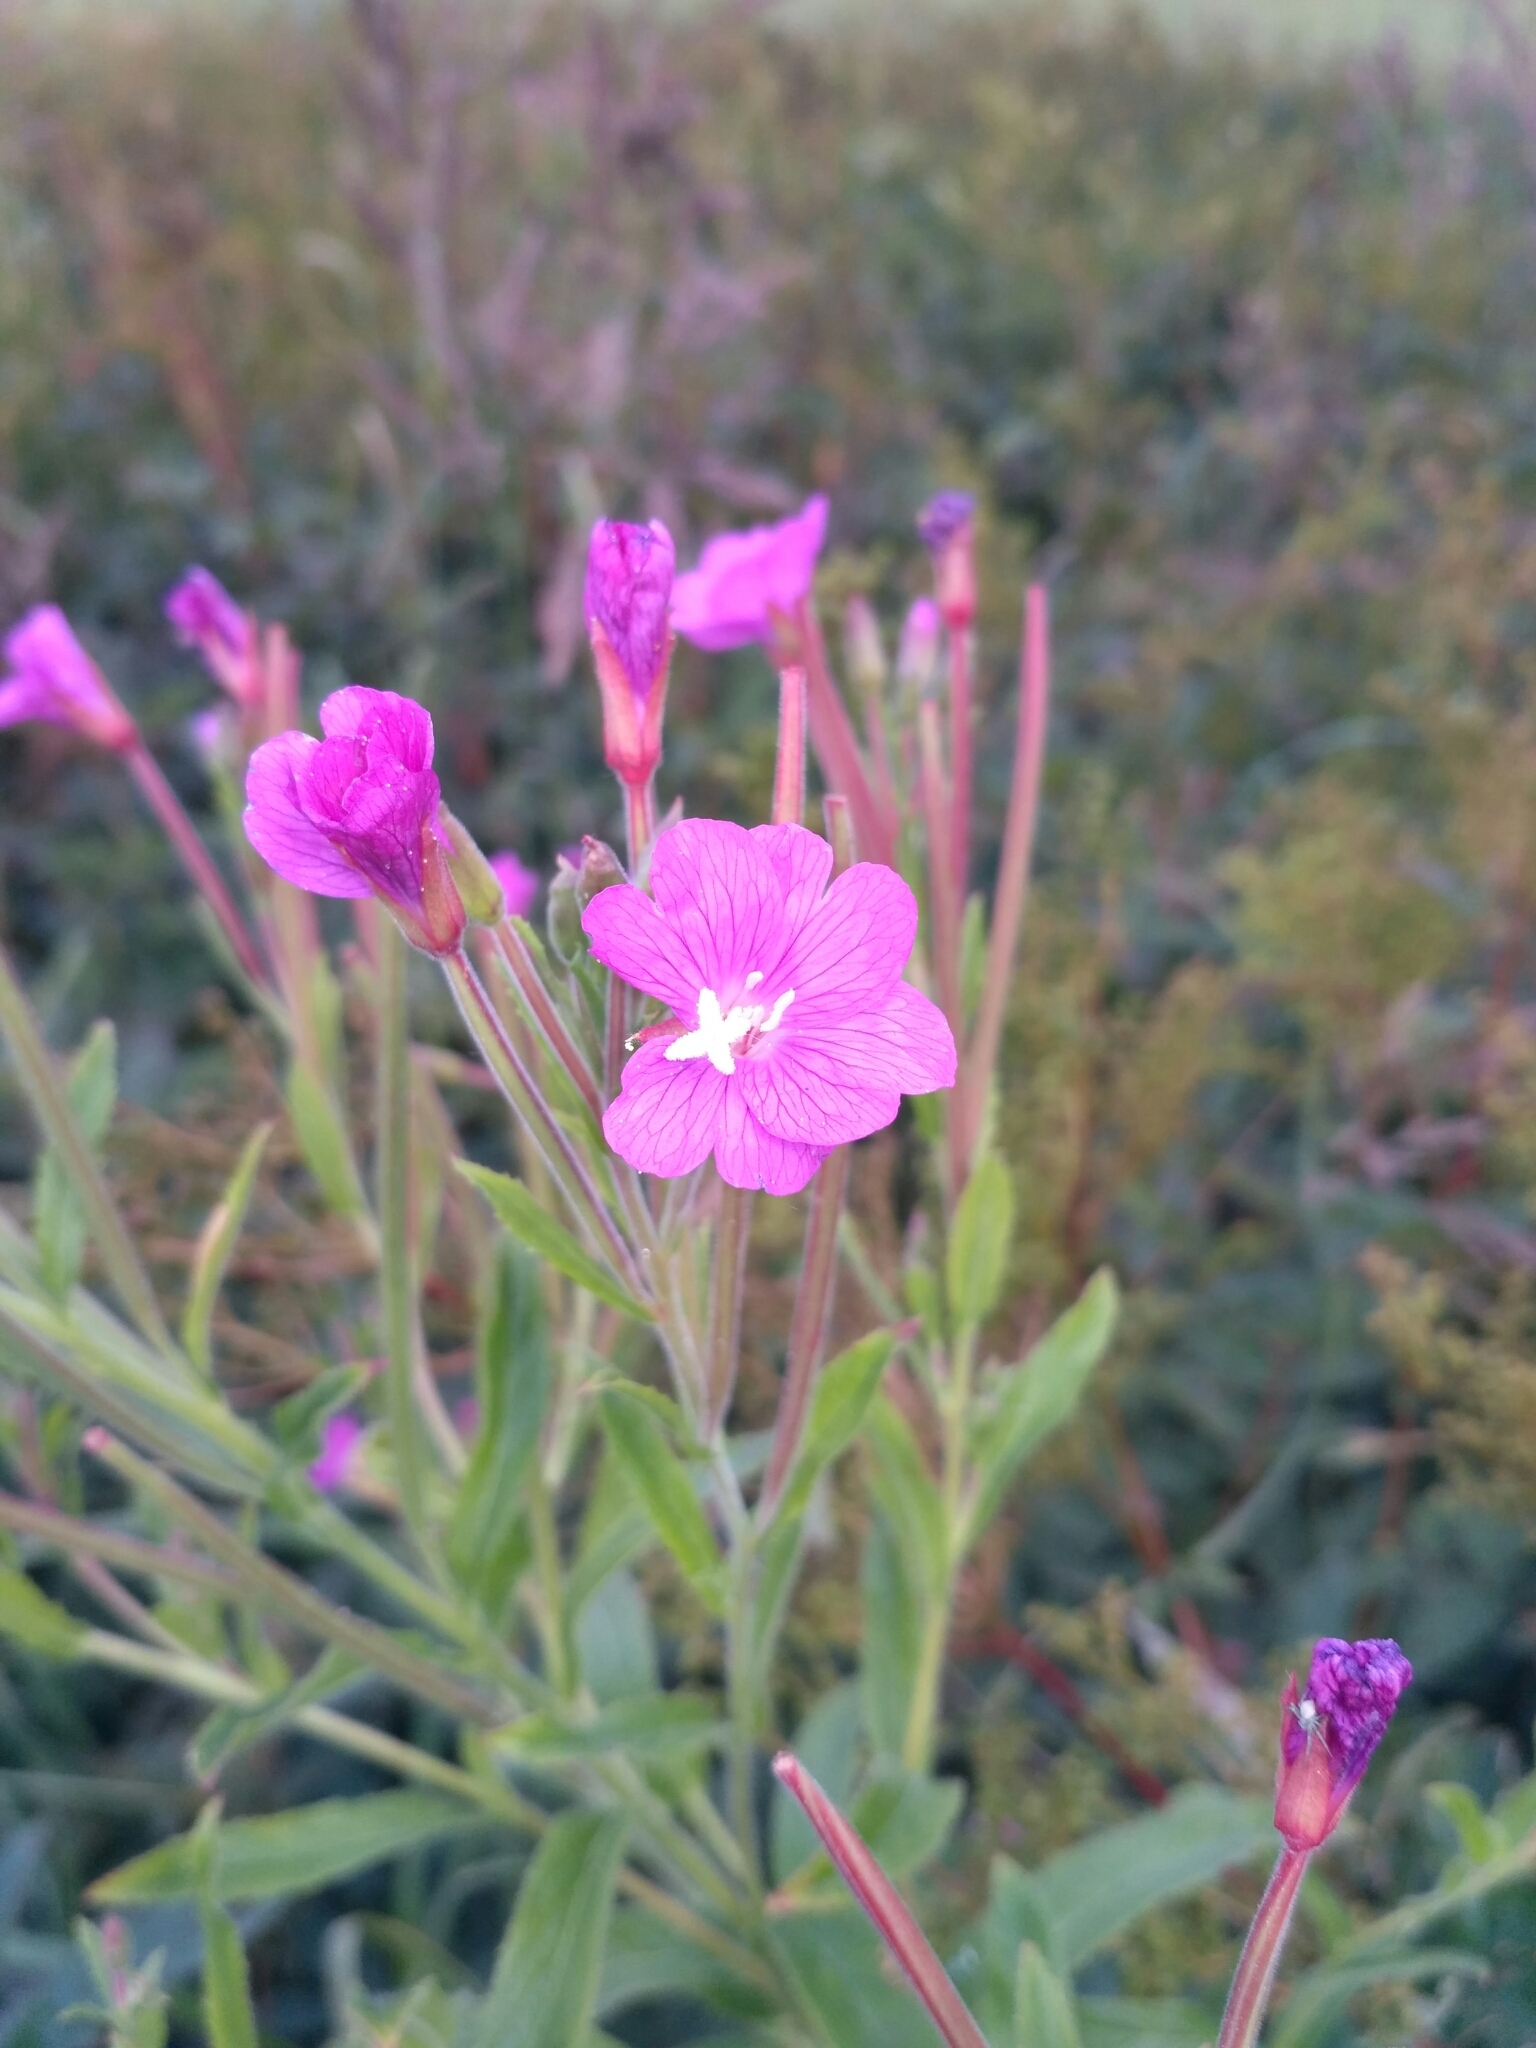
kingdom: Plantae
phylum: Tracheophyta
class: Magnoliopsida
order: Myrtales
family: Onagraceae
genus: Epilobium
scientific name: Epilobium hirsutum
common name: Great willowherb
